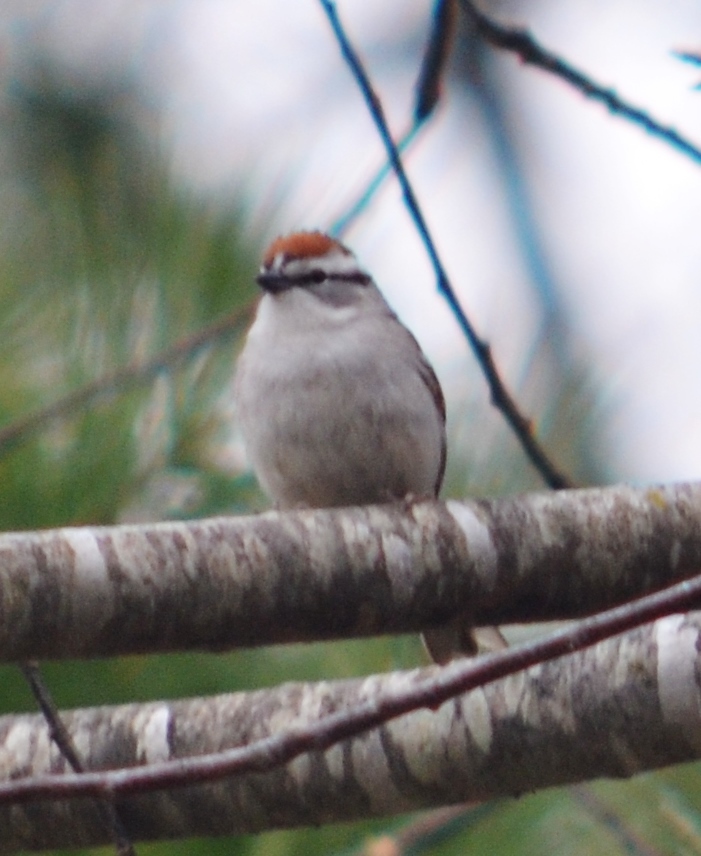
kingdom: Animalia
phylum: Chordata
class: Aves
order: Passeriformes
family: Passerellidae
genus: Spizella
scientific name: Spizella passerina
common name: Chipping sparrow
